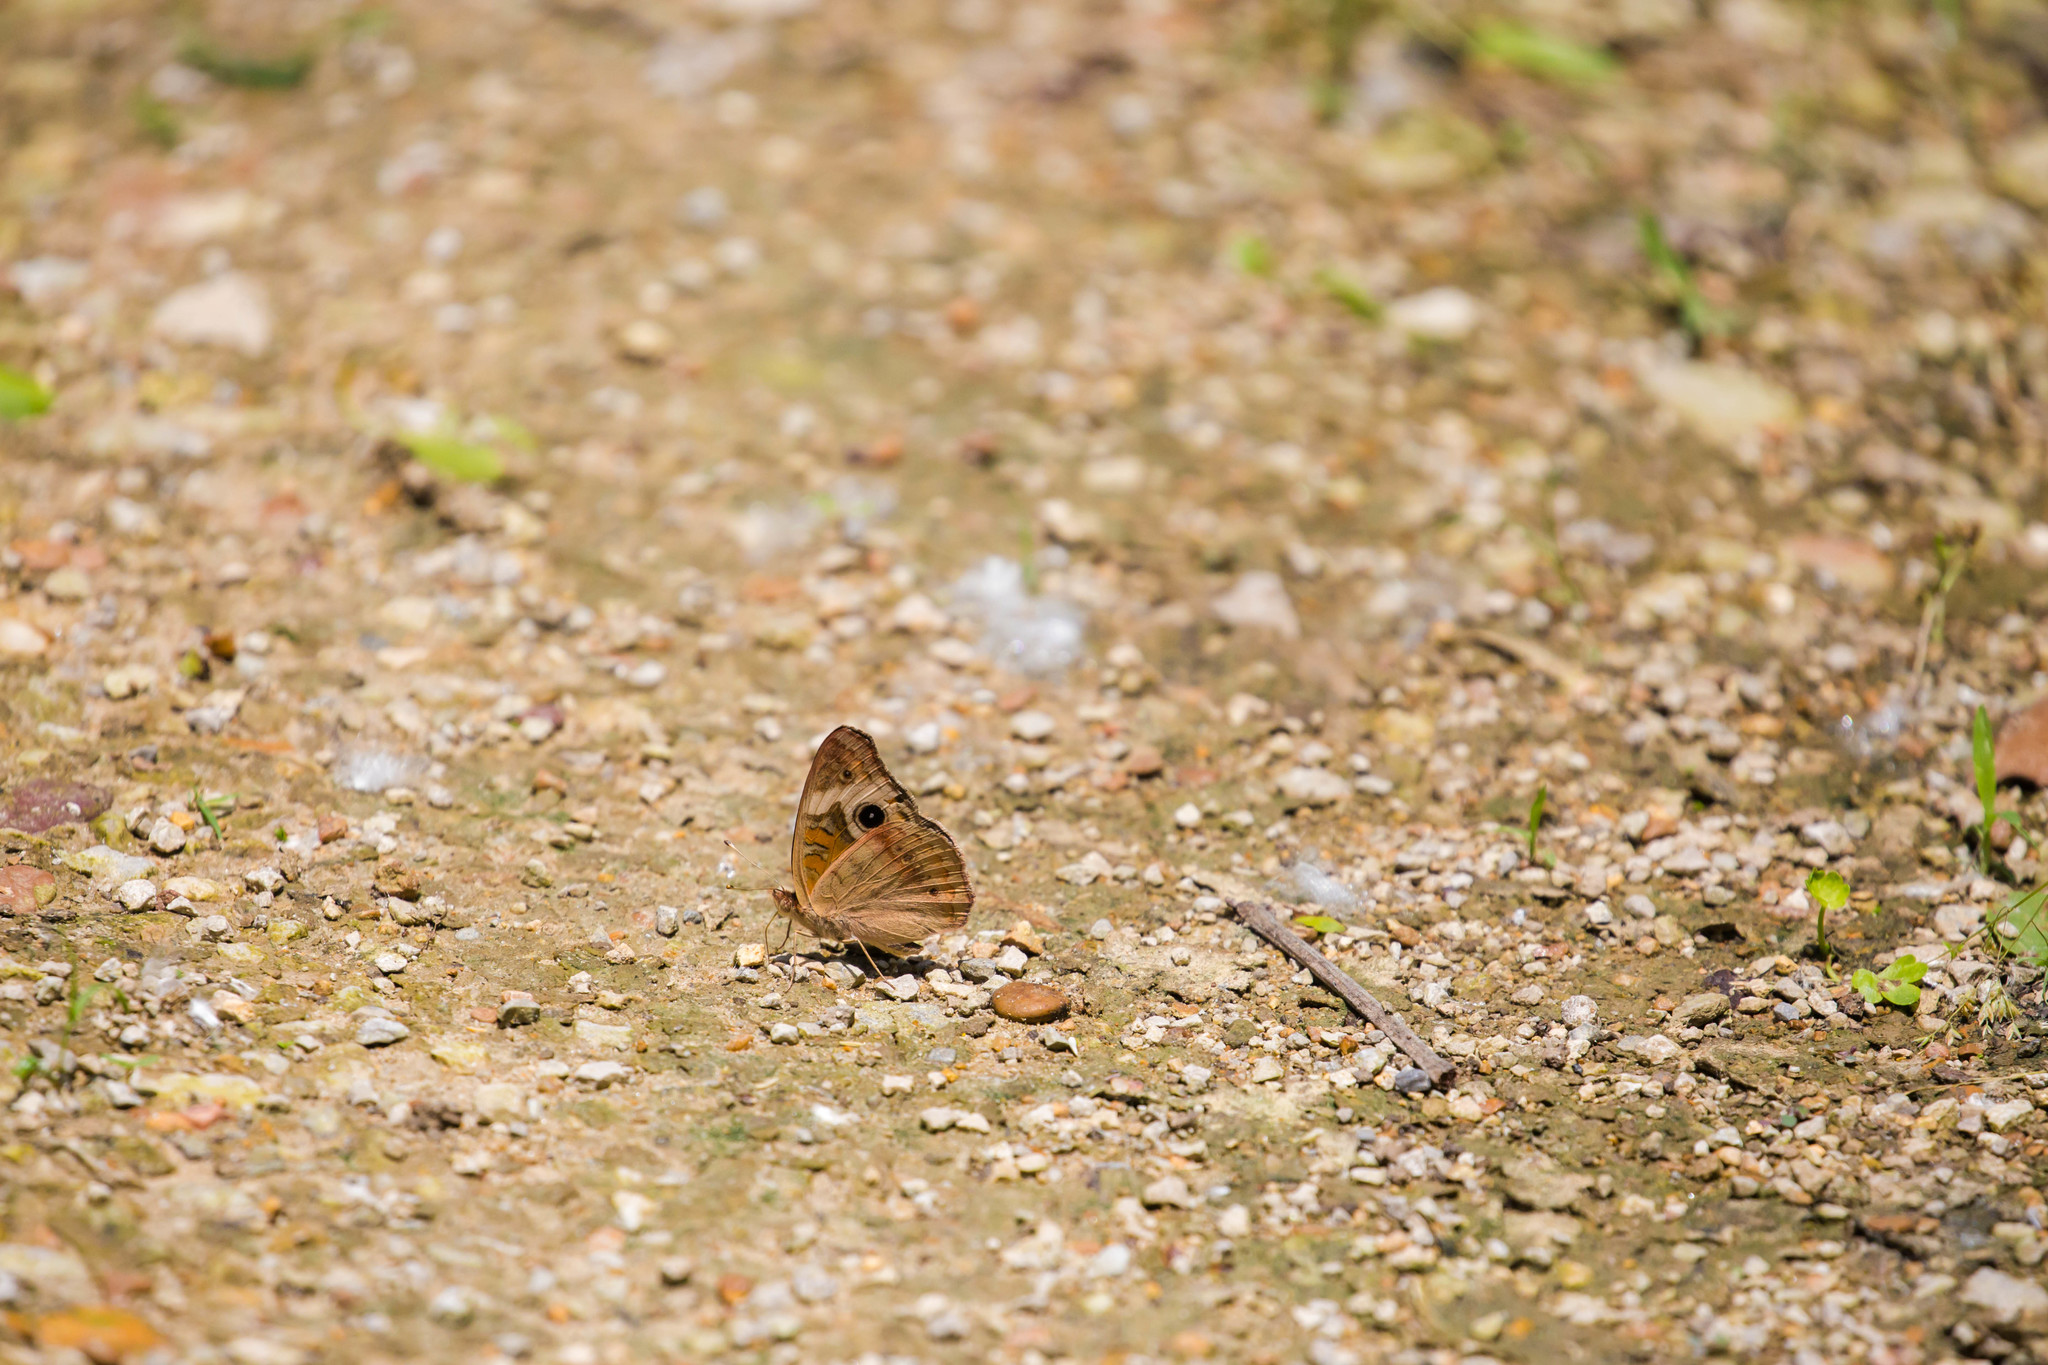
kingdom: Animalia
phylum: Arthropoda
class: Insecta
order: Lepidoptera
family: Nymphalidae
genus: Junonia
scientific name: Junonia coenia
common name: Common buckeye
